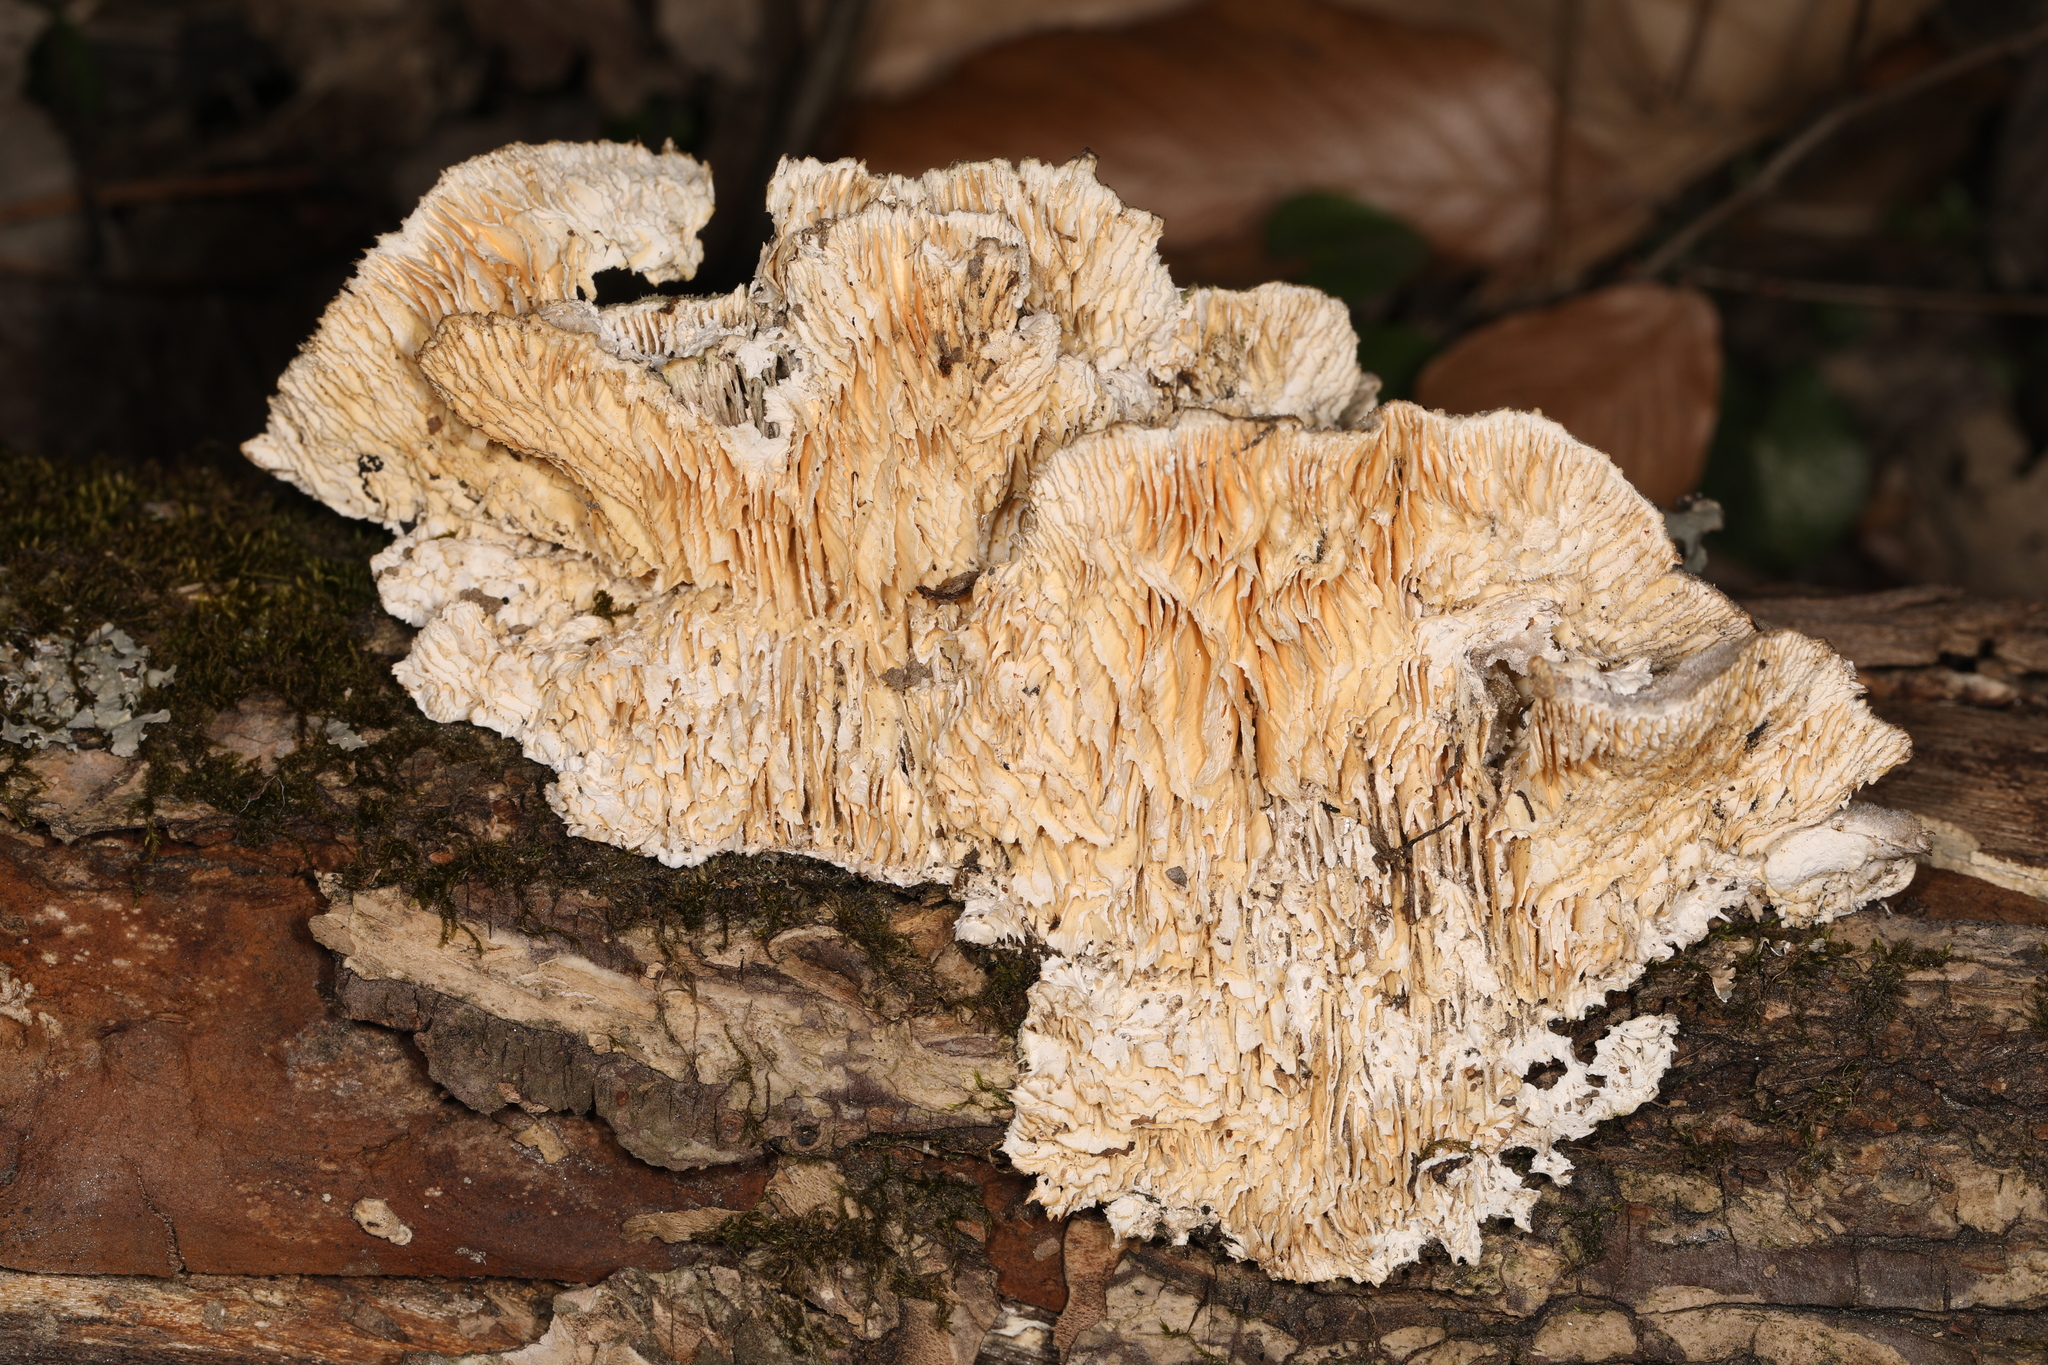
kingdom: Fungi
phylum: Basidiomycota
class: Agaricomycetes
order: Polyporales
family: Polyporaceae
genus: Lenzites
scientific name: Lenzites betulinus
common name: Birch mazegill
